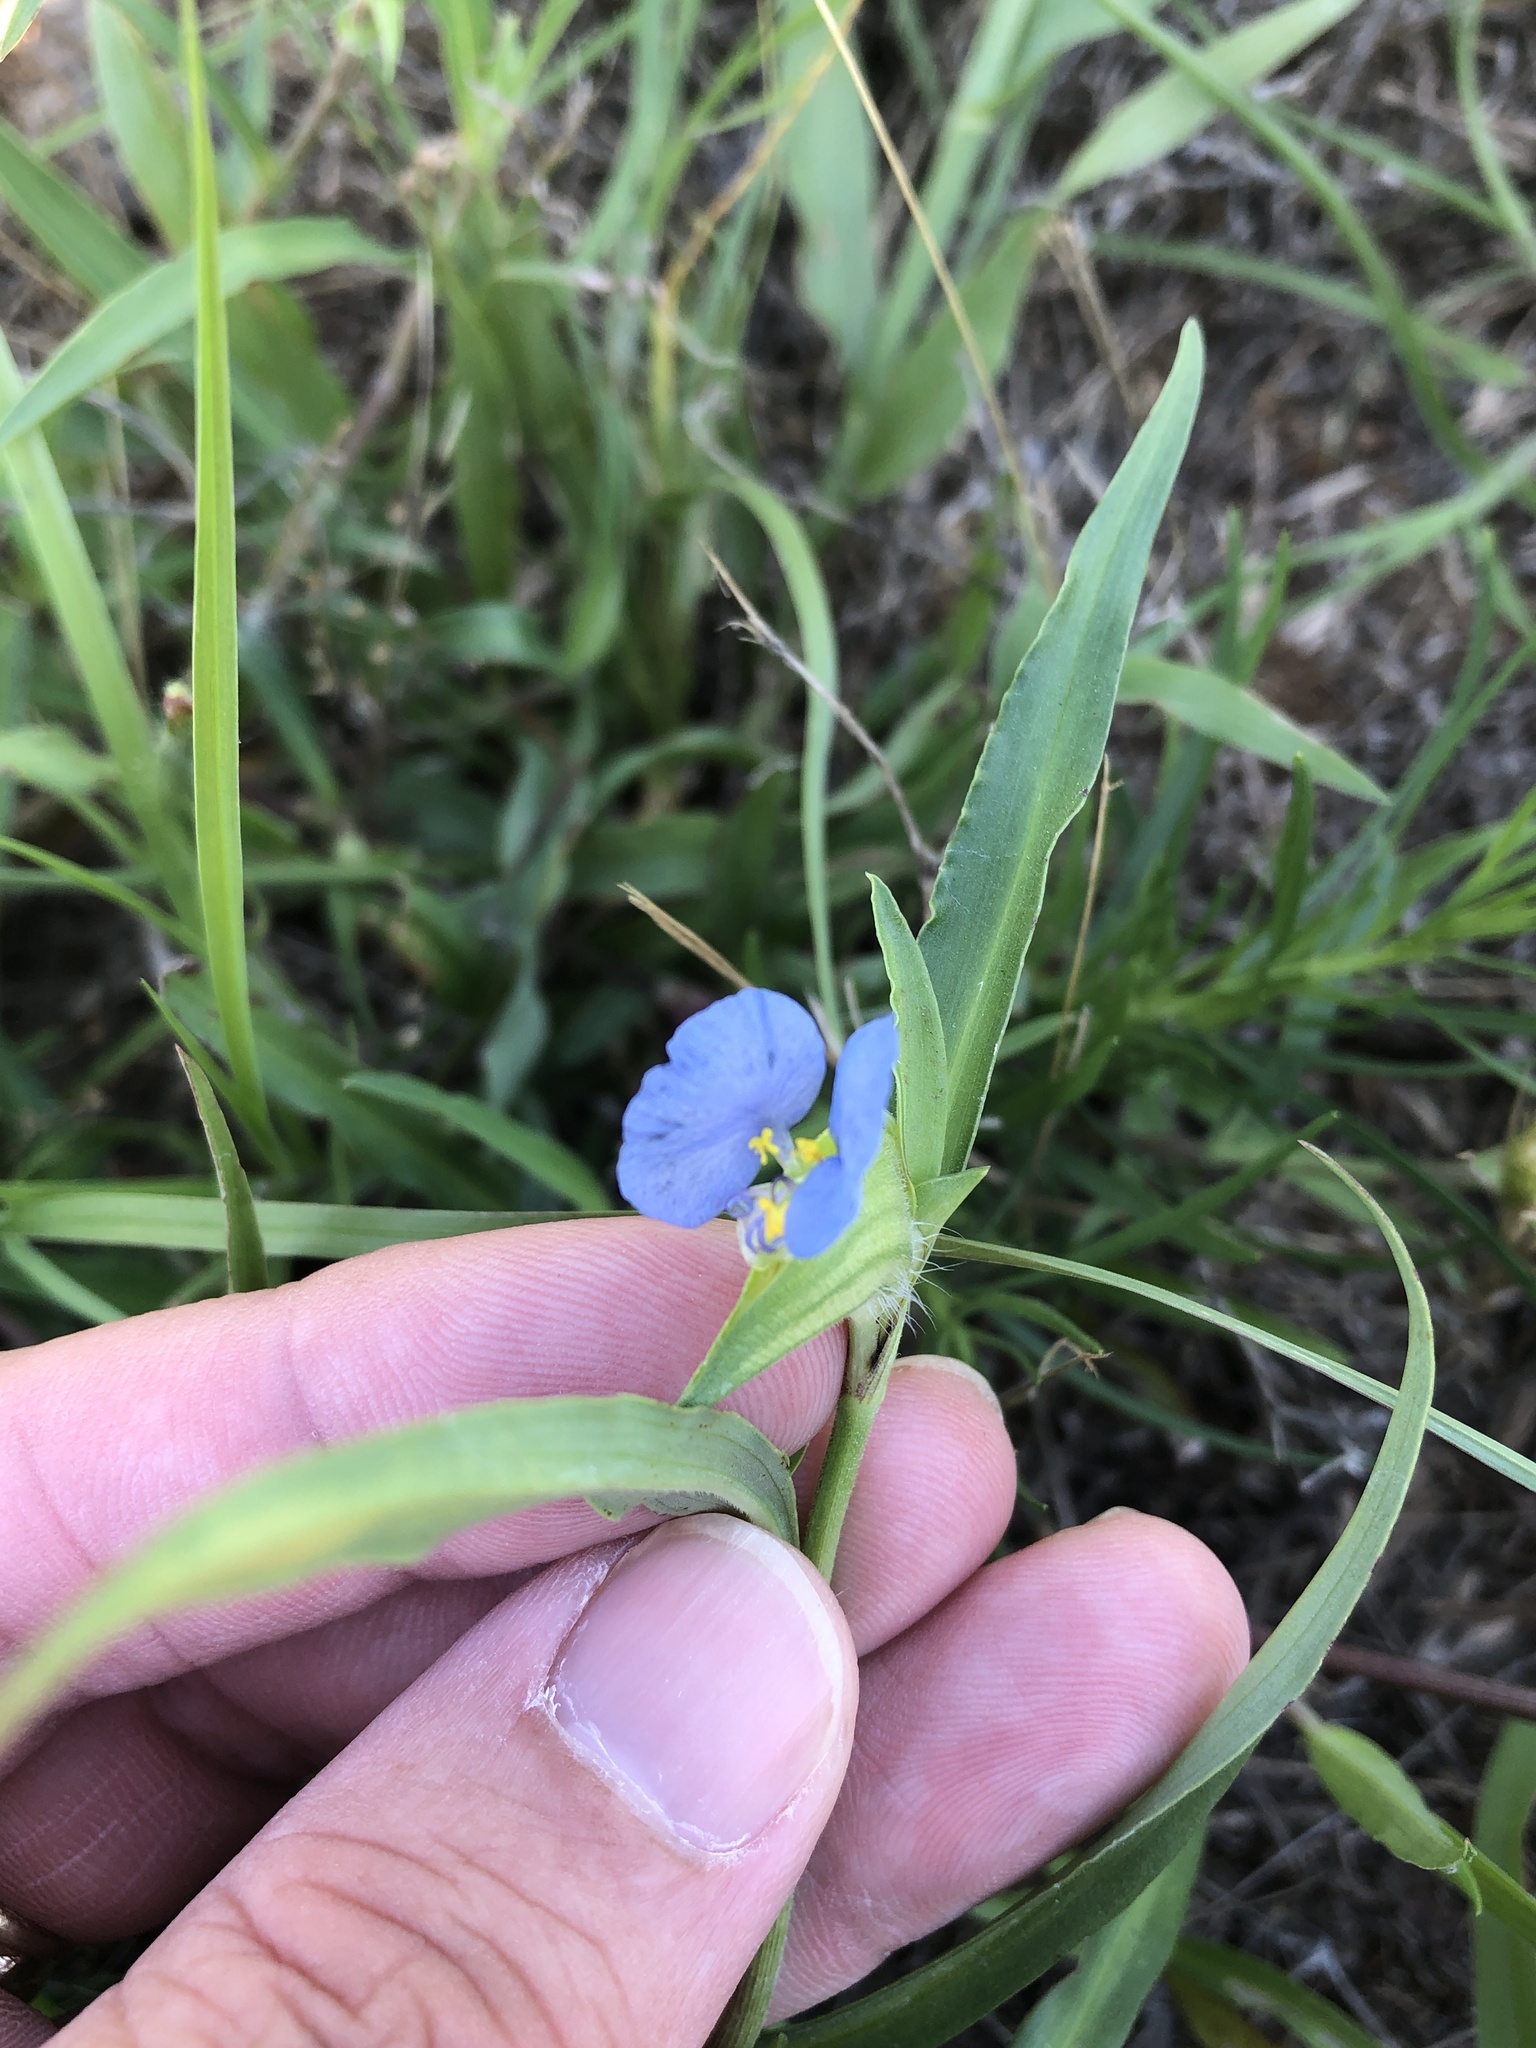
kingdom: Plantae
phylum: Tracheophyta
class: Liliopsida
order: Commelinales
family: Commelinaceae
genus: Commelina
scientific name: Commelina erecta
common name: Blousel blommetjie
